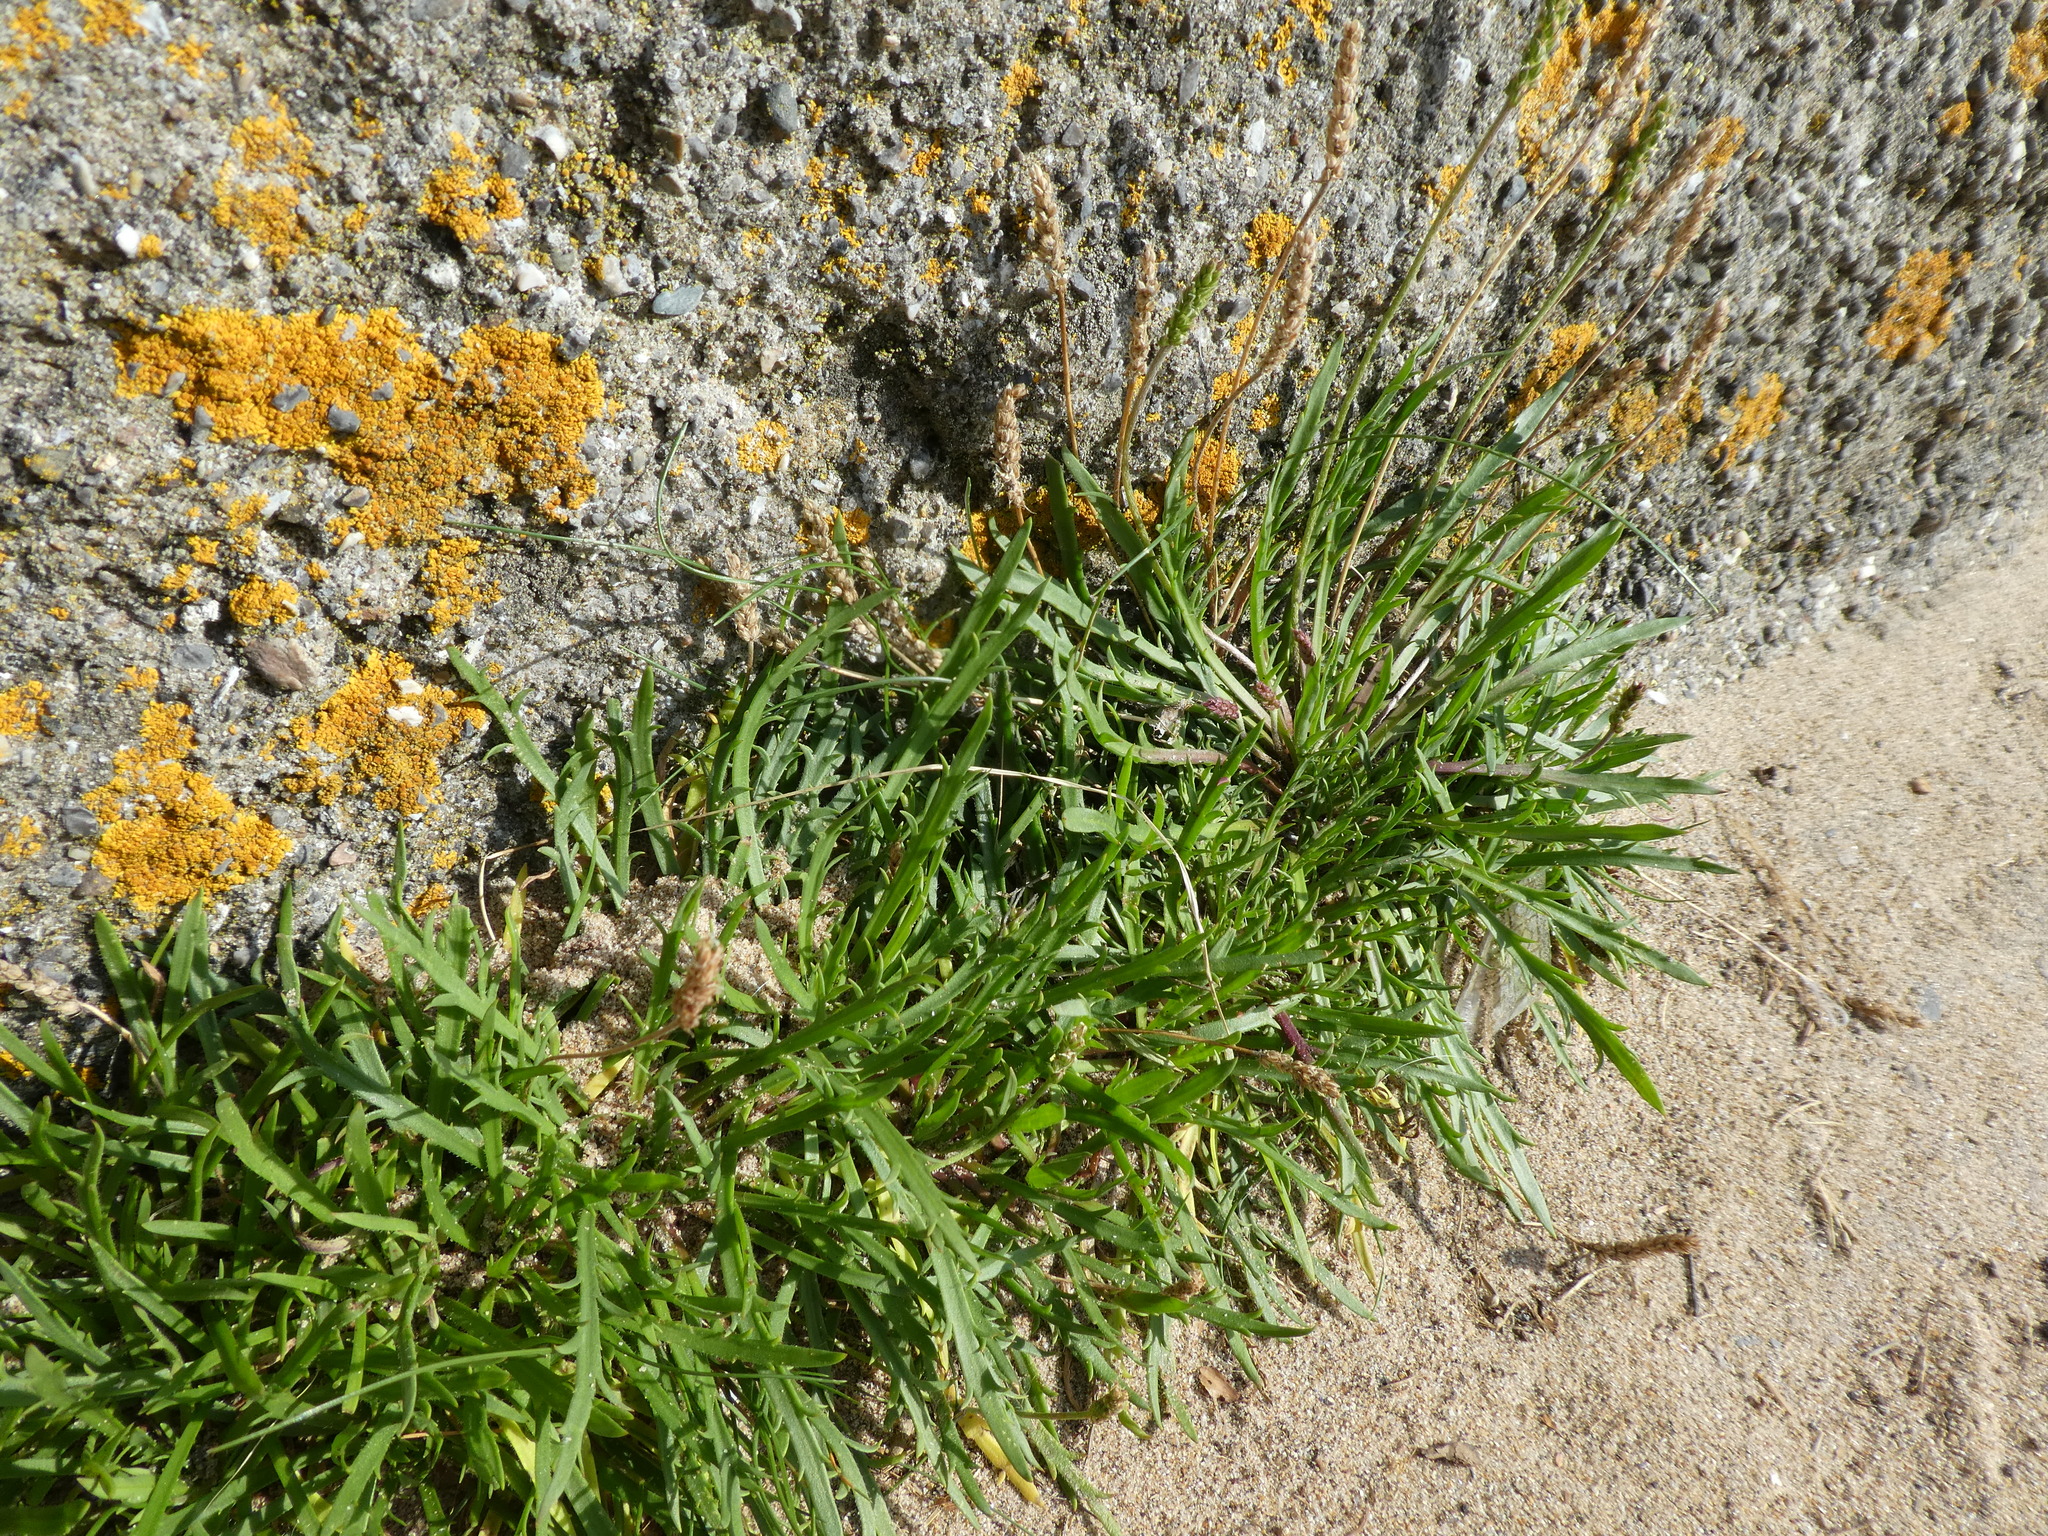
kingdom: Plantae
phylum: Tracheophyta
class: Magnoliopsida
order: Lamiales
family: Plantaginaceae
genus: Plantago
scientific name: Plantago coronopus
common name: Buck's-horn plantain
